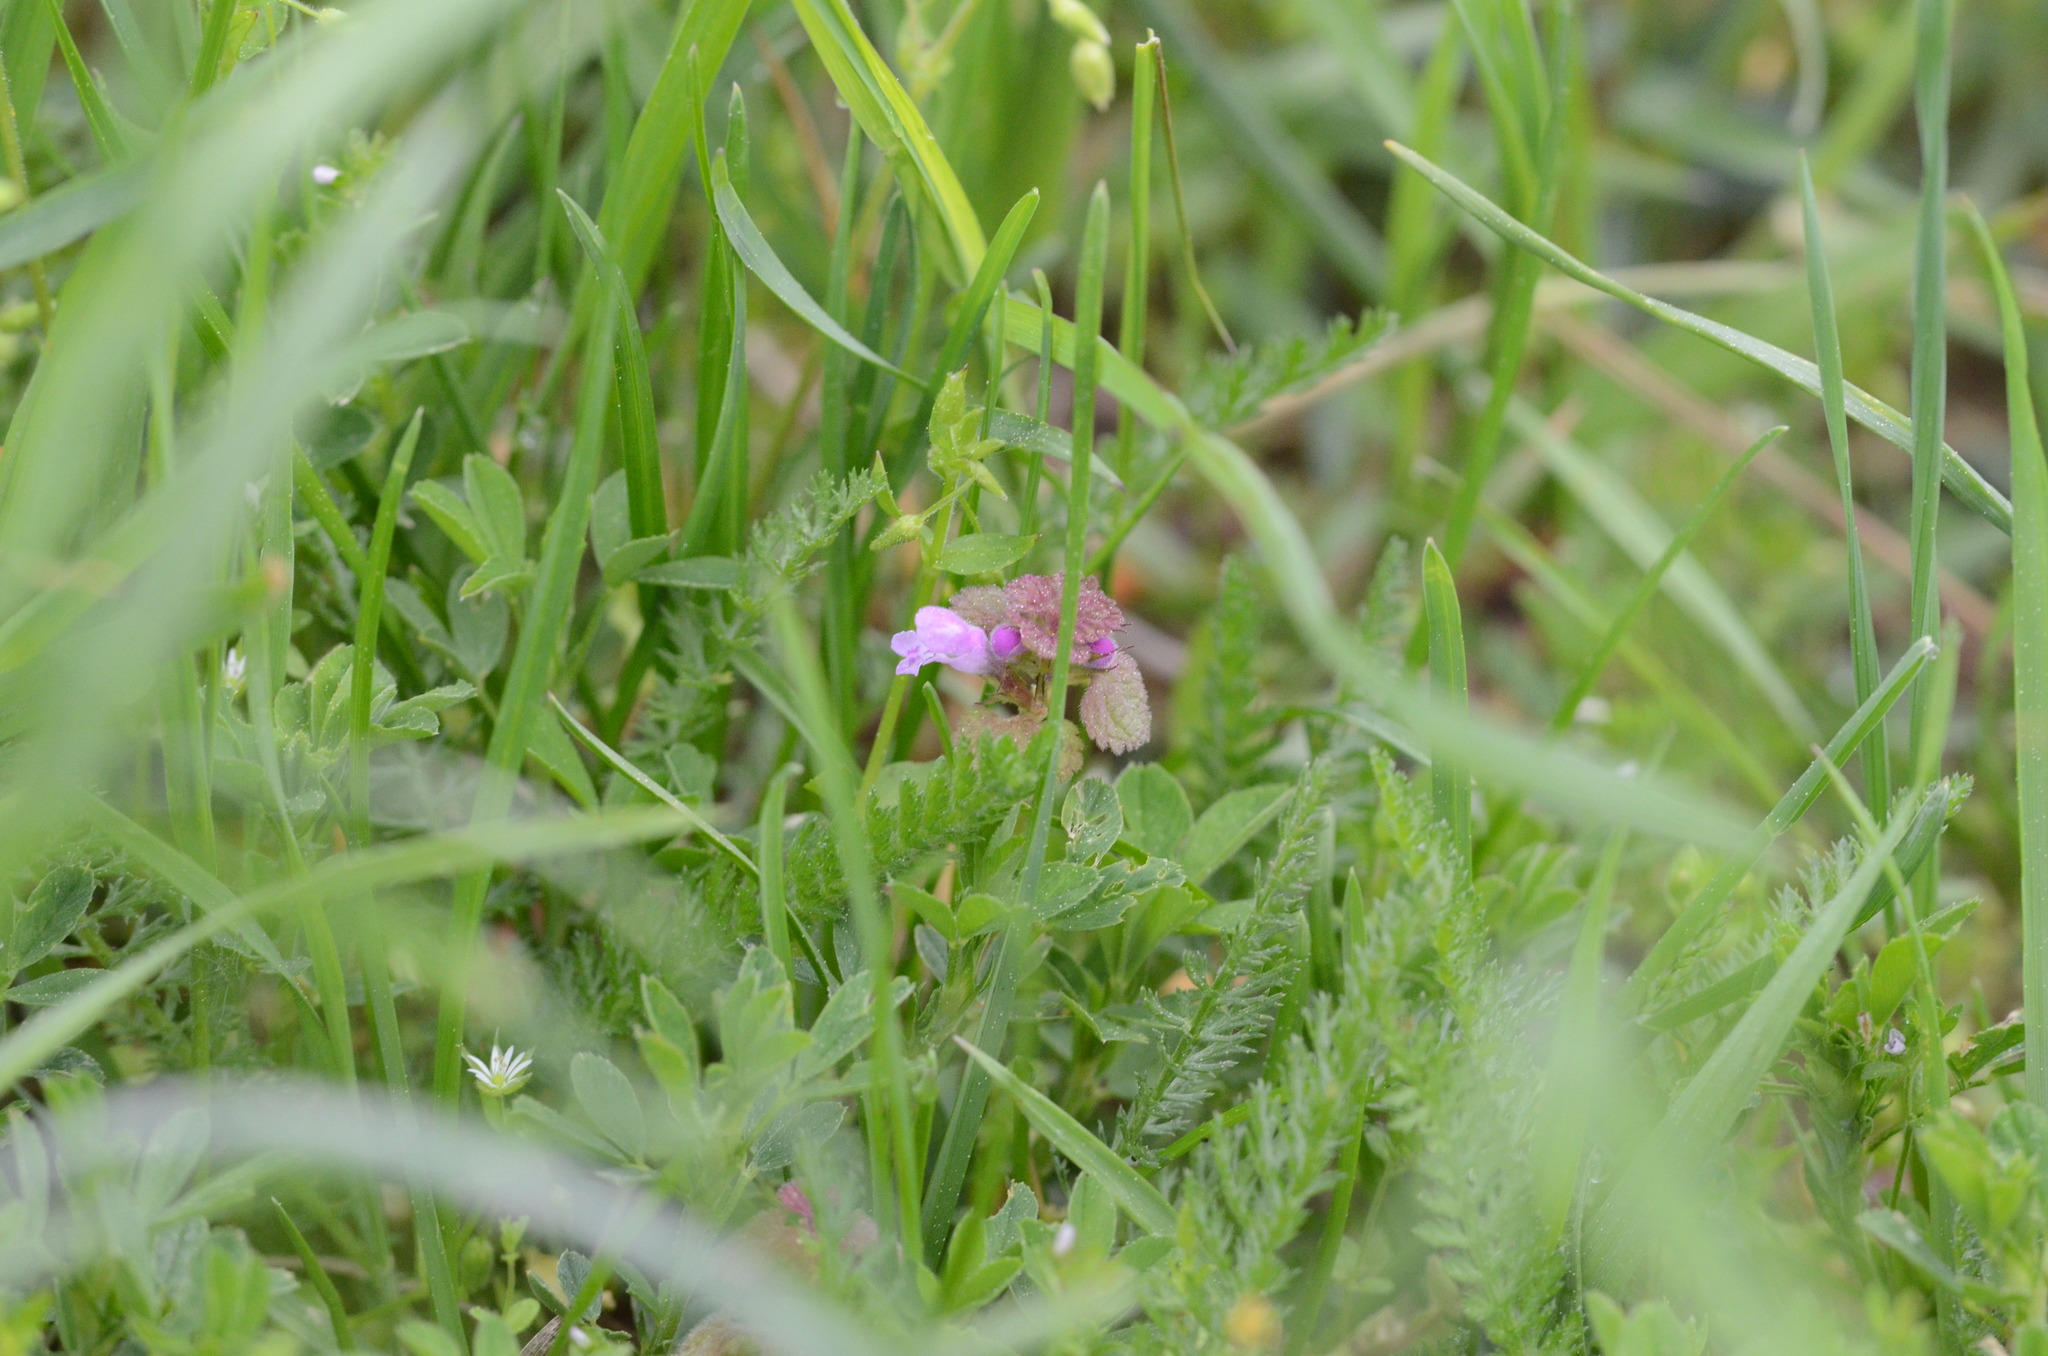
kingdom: Plantae
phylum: Tracheophyta
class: Magnoliopsida
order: Lamiales
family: Lamiaceae
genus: Lamium
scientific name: Lamium purpureum
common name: Red dead-nettle
